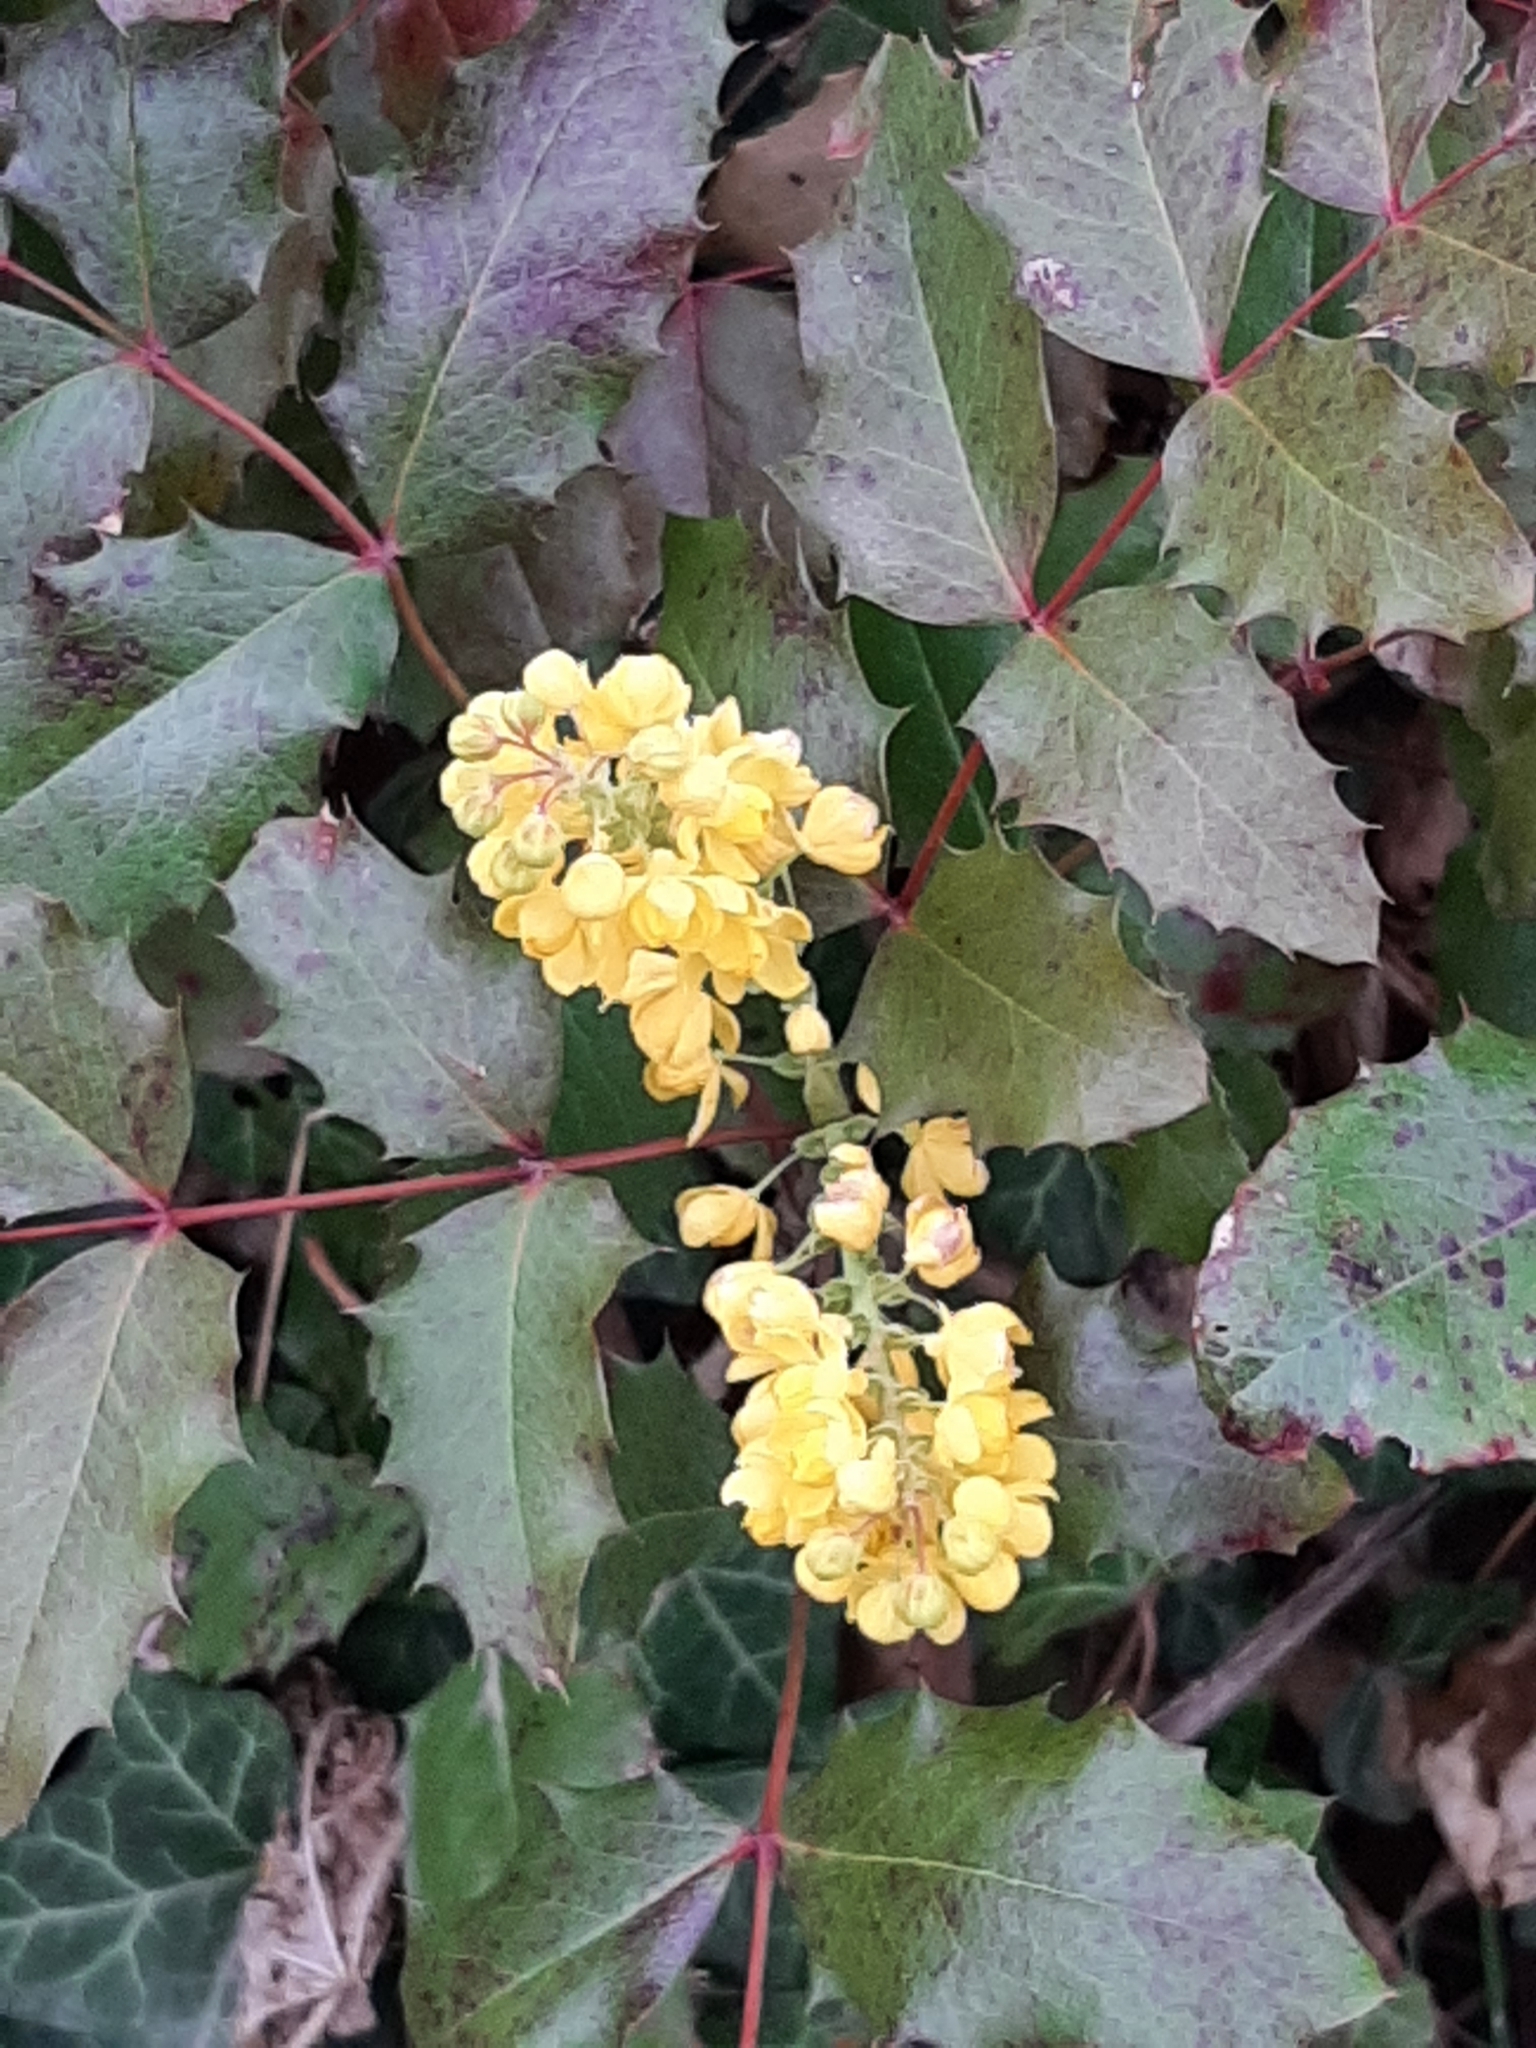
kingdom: Plantae
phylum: Tracheophyta
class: Magnoliopsida
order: Ranunculales
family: Berberidaceae
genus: Mahonia
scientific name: Mahonia aquifolium
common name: Oregon-grape
